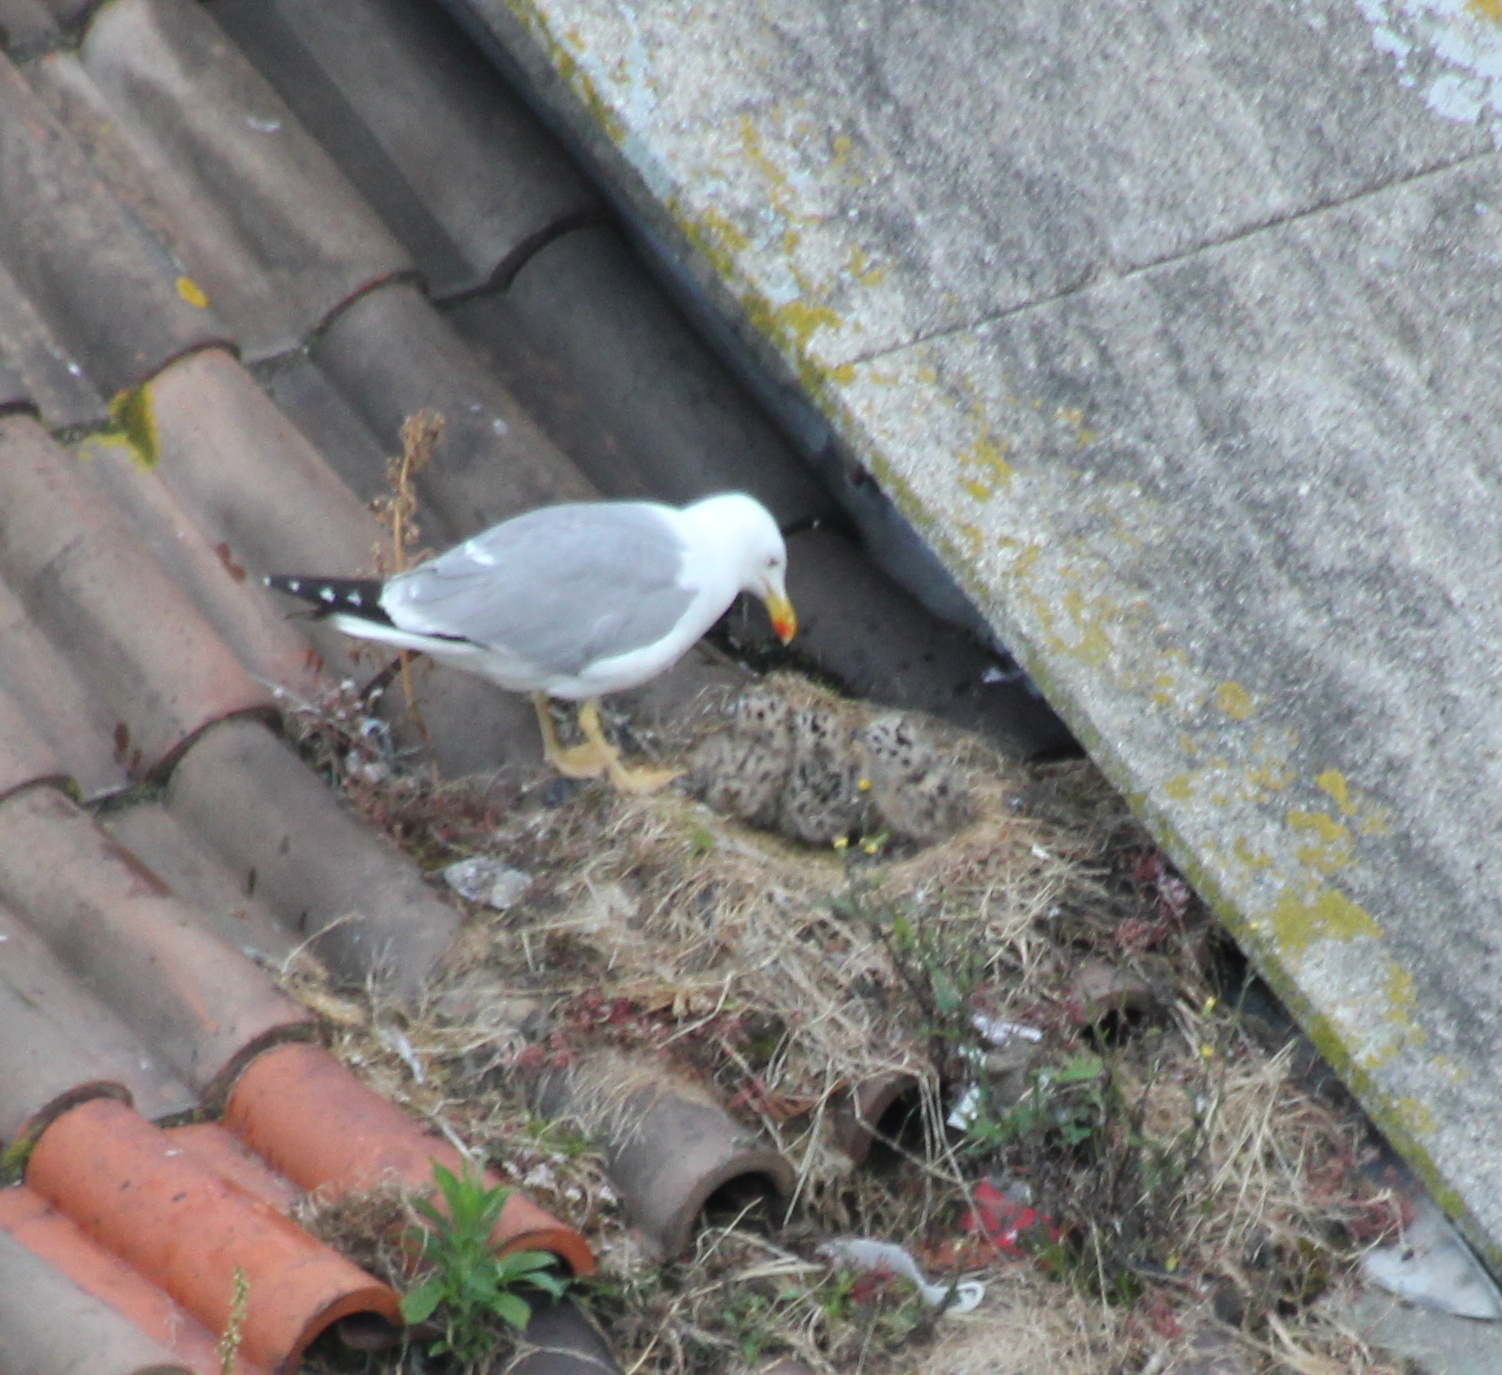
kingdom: Animalia
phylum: Chordata
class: Aves
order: Charadriiformes
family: Laridae
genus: Larus
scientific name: Larus michahellis
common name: Yellow-legged gull
